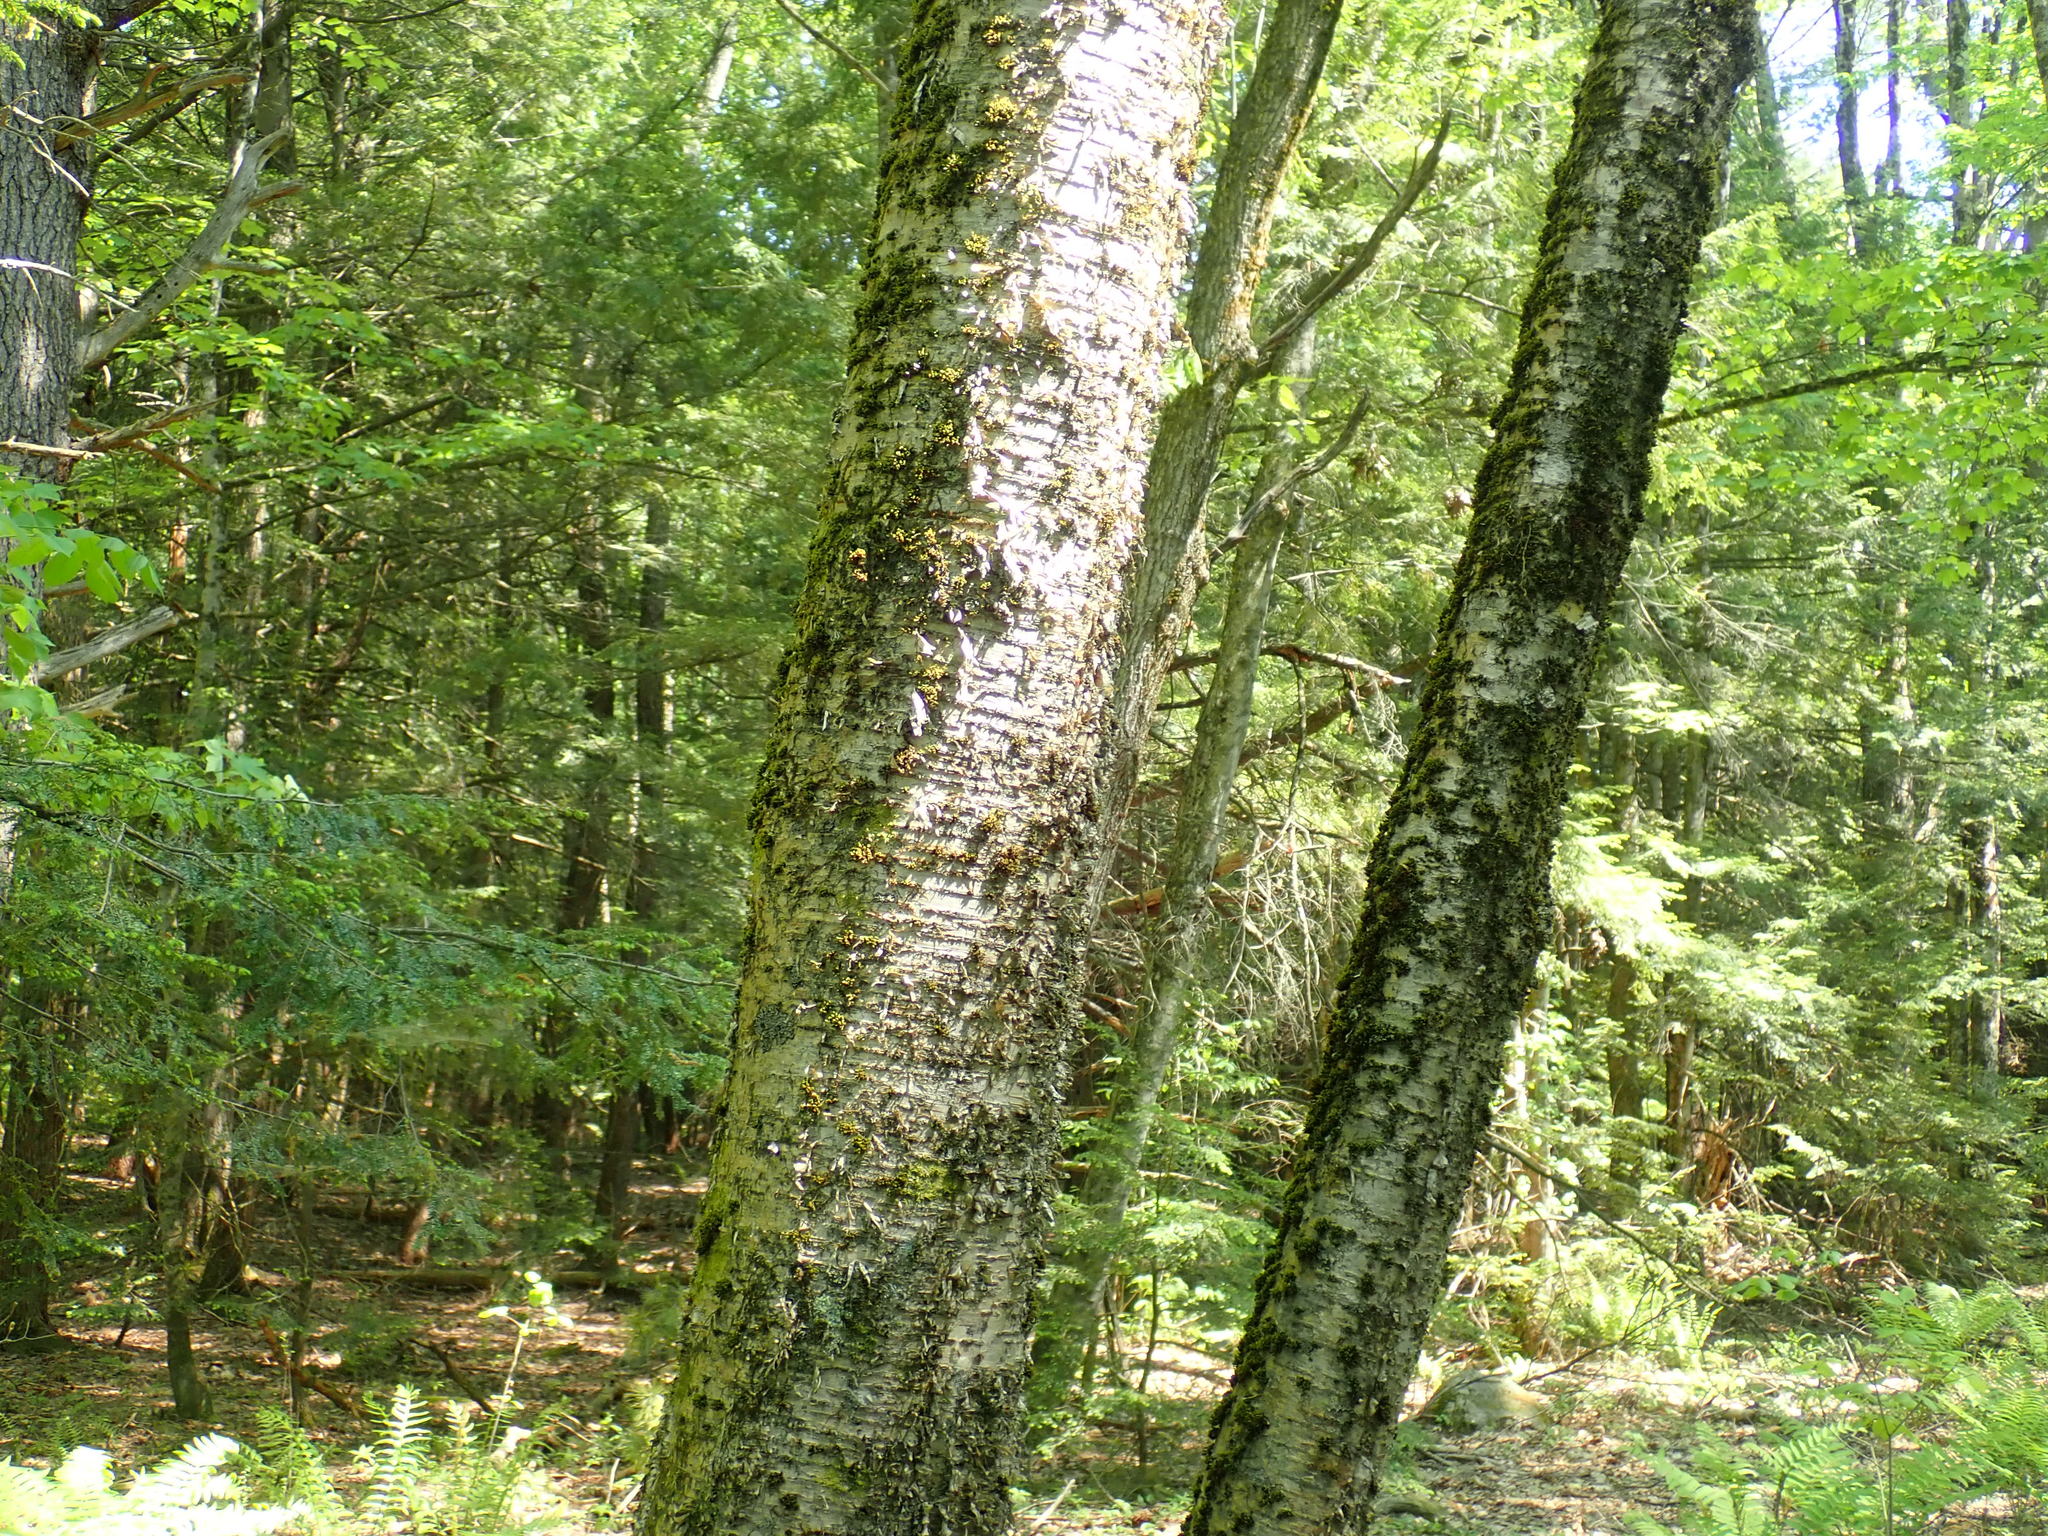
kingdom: Plantae
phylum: Tracheophyta
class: Magnoliopsida
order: Fagales
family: Betulaceae
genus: Betula
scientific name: Betula alleghaniensis
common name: Yellow birch
